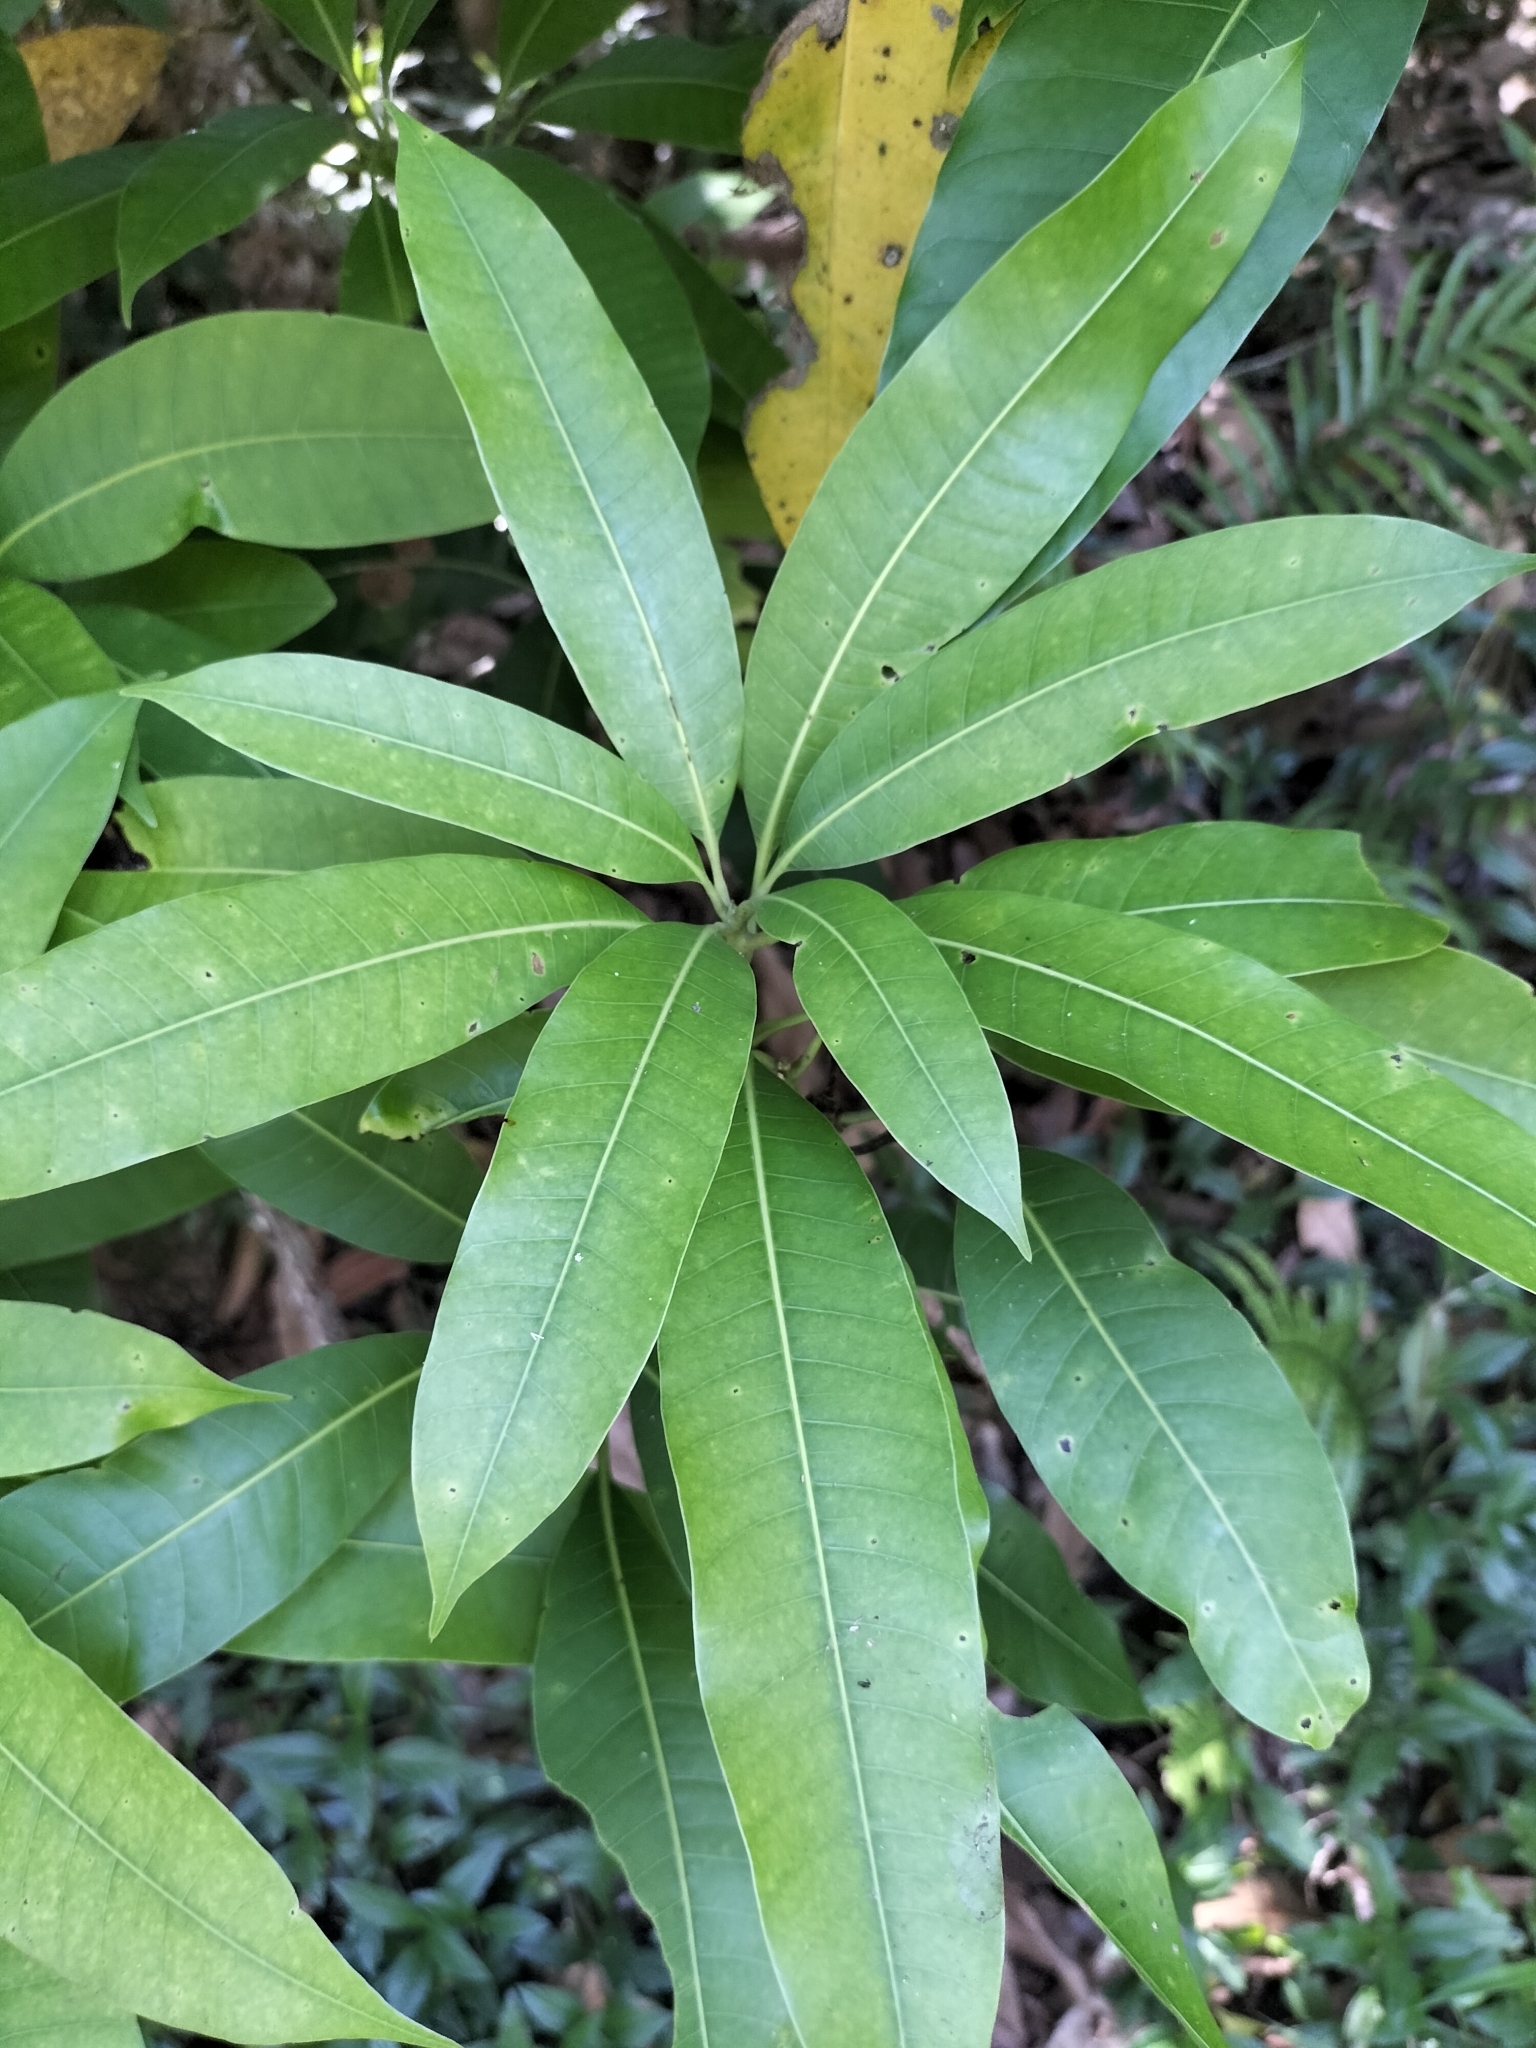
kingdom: Plantae
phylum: Tracheophyta
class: Magnoliopsida
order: Sapindales
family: Anacardiaceae
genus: Mangifera
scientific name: Mangifera indica
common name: Mango
